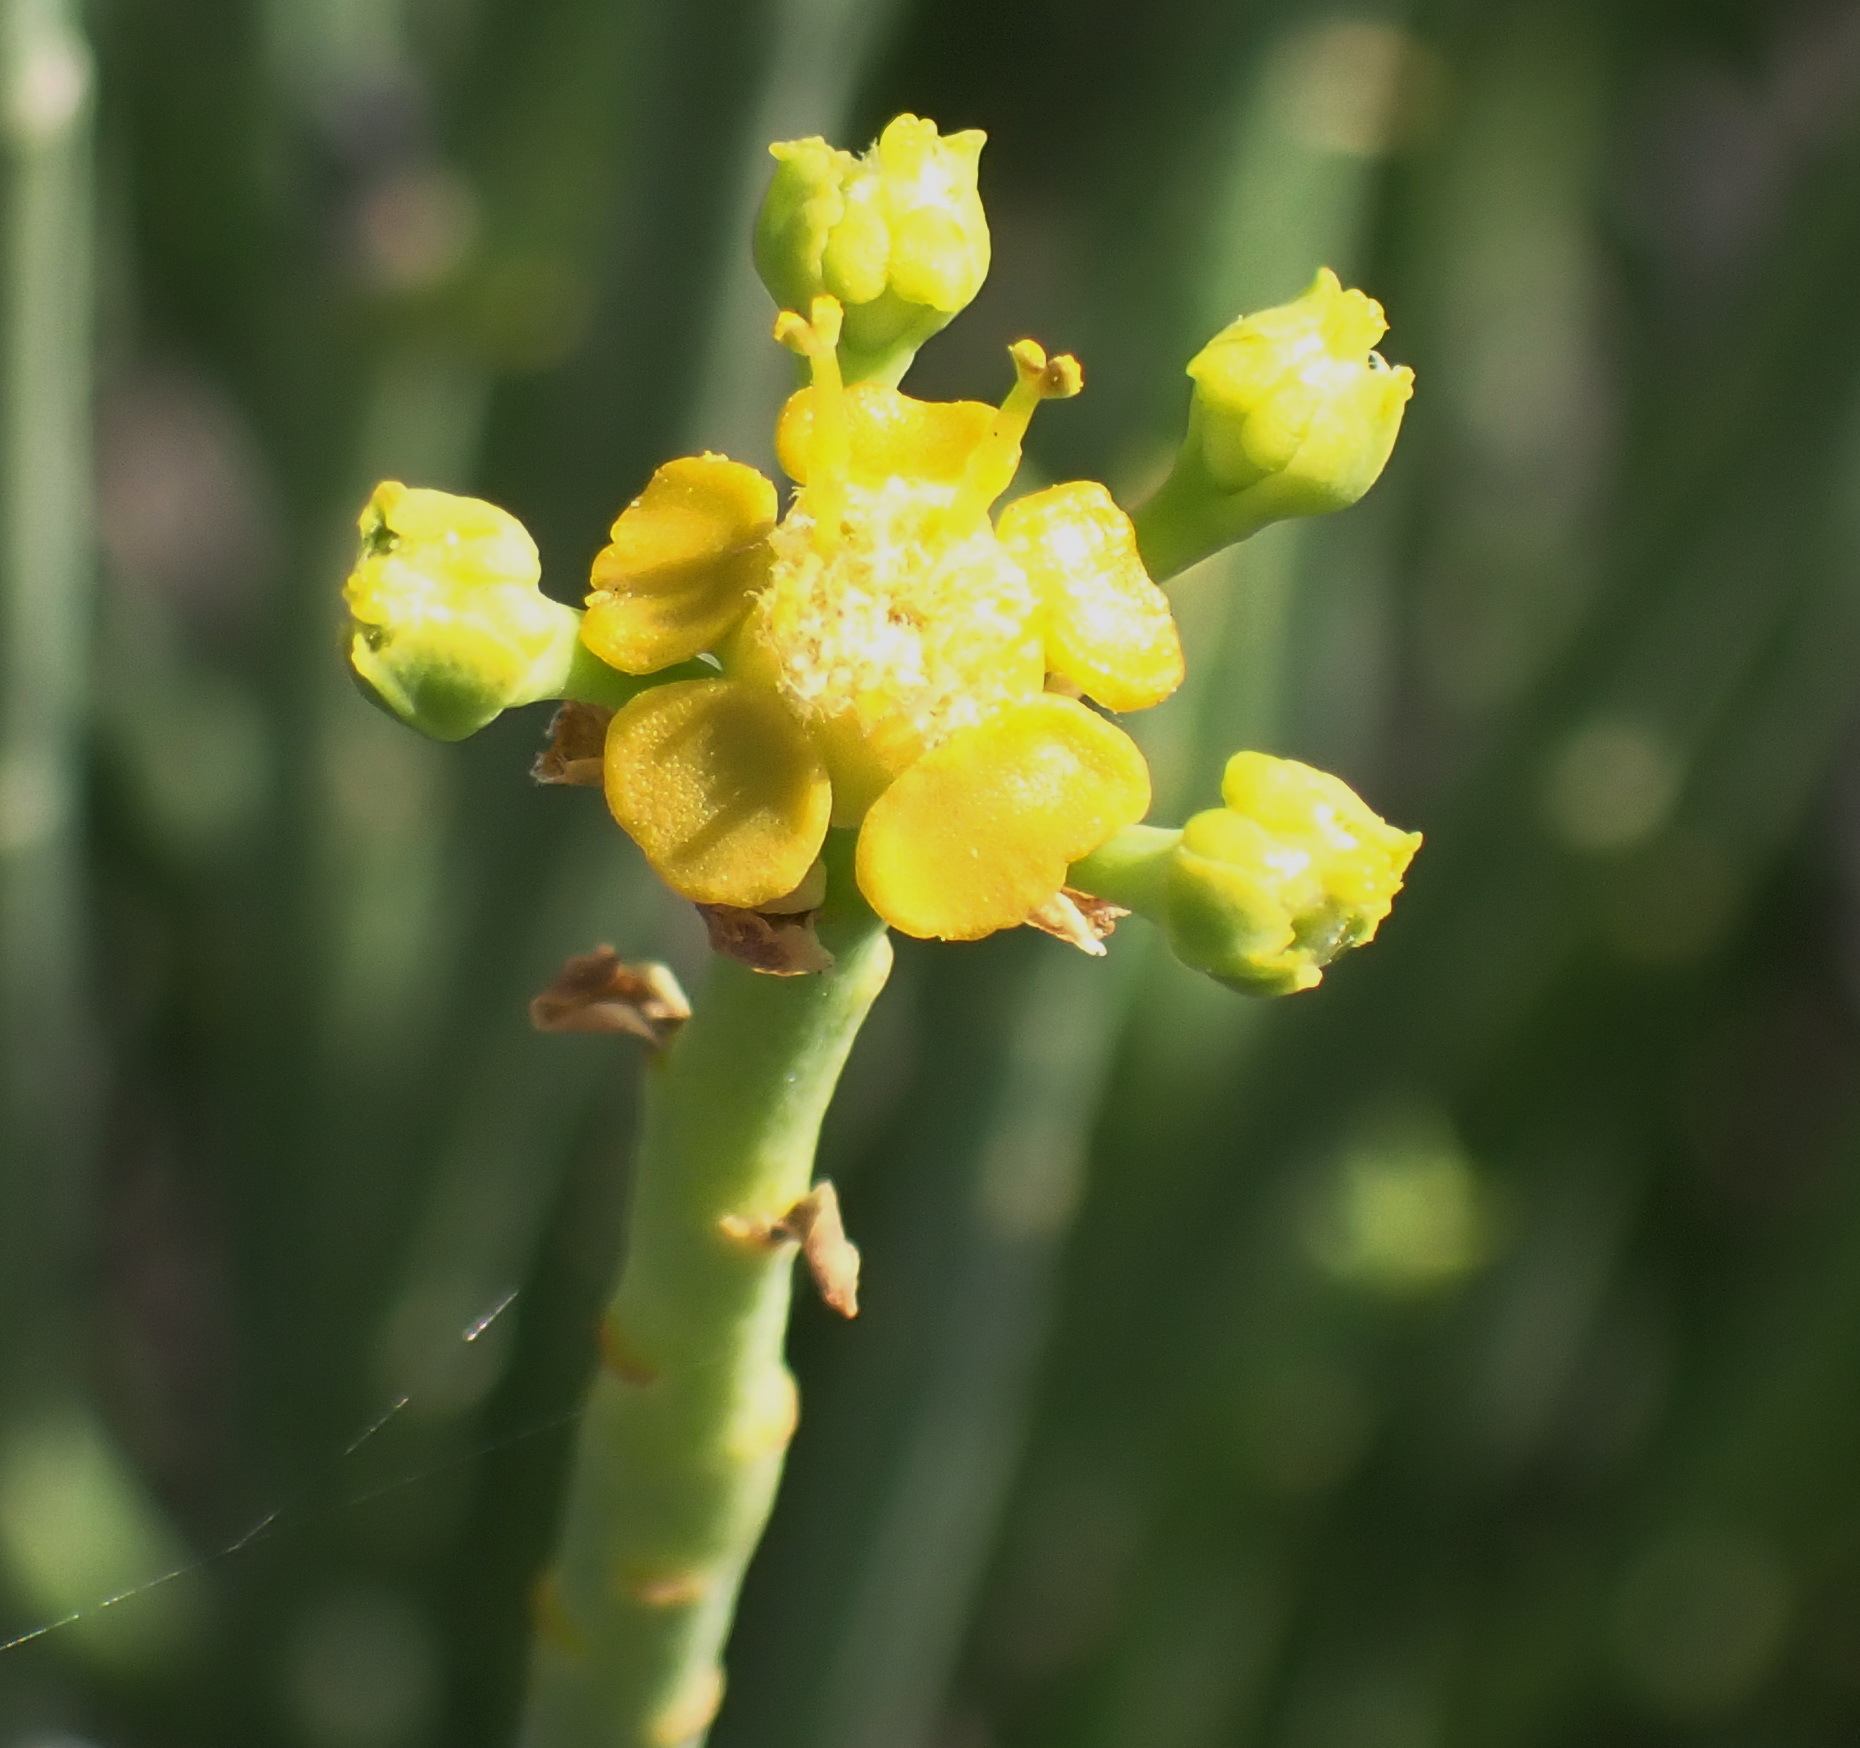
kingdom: Plantae
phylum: Tracheophyta
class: Magnoliopsida
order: Malpighiales
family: Euphorbiaceae
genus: Euphorbia
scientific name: Euphorbia mauritanica
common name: Jackal's-food
